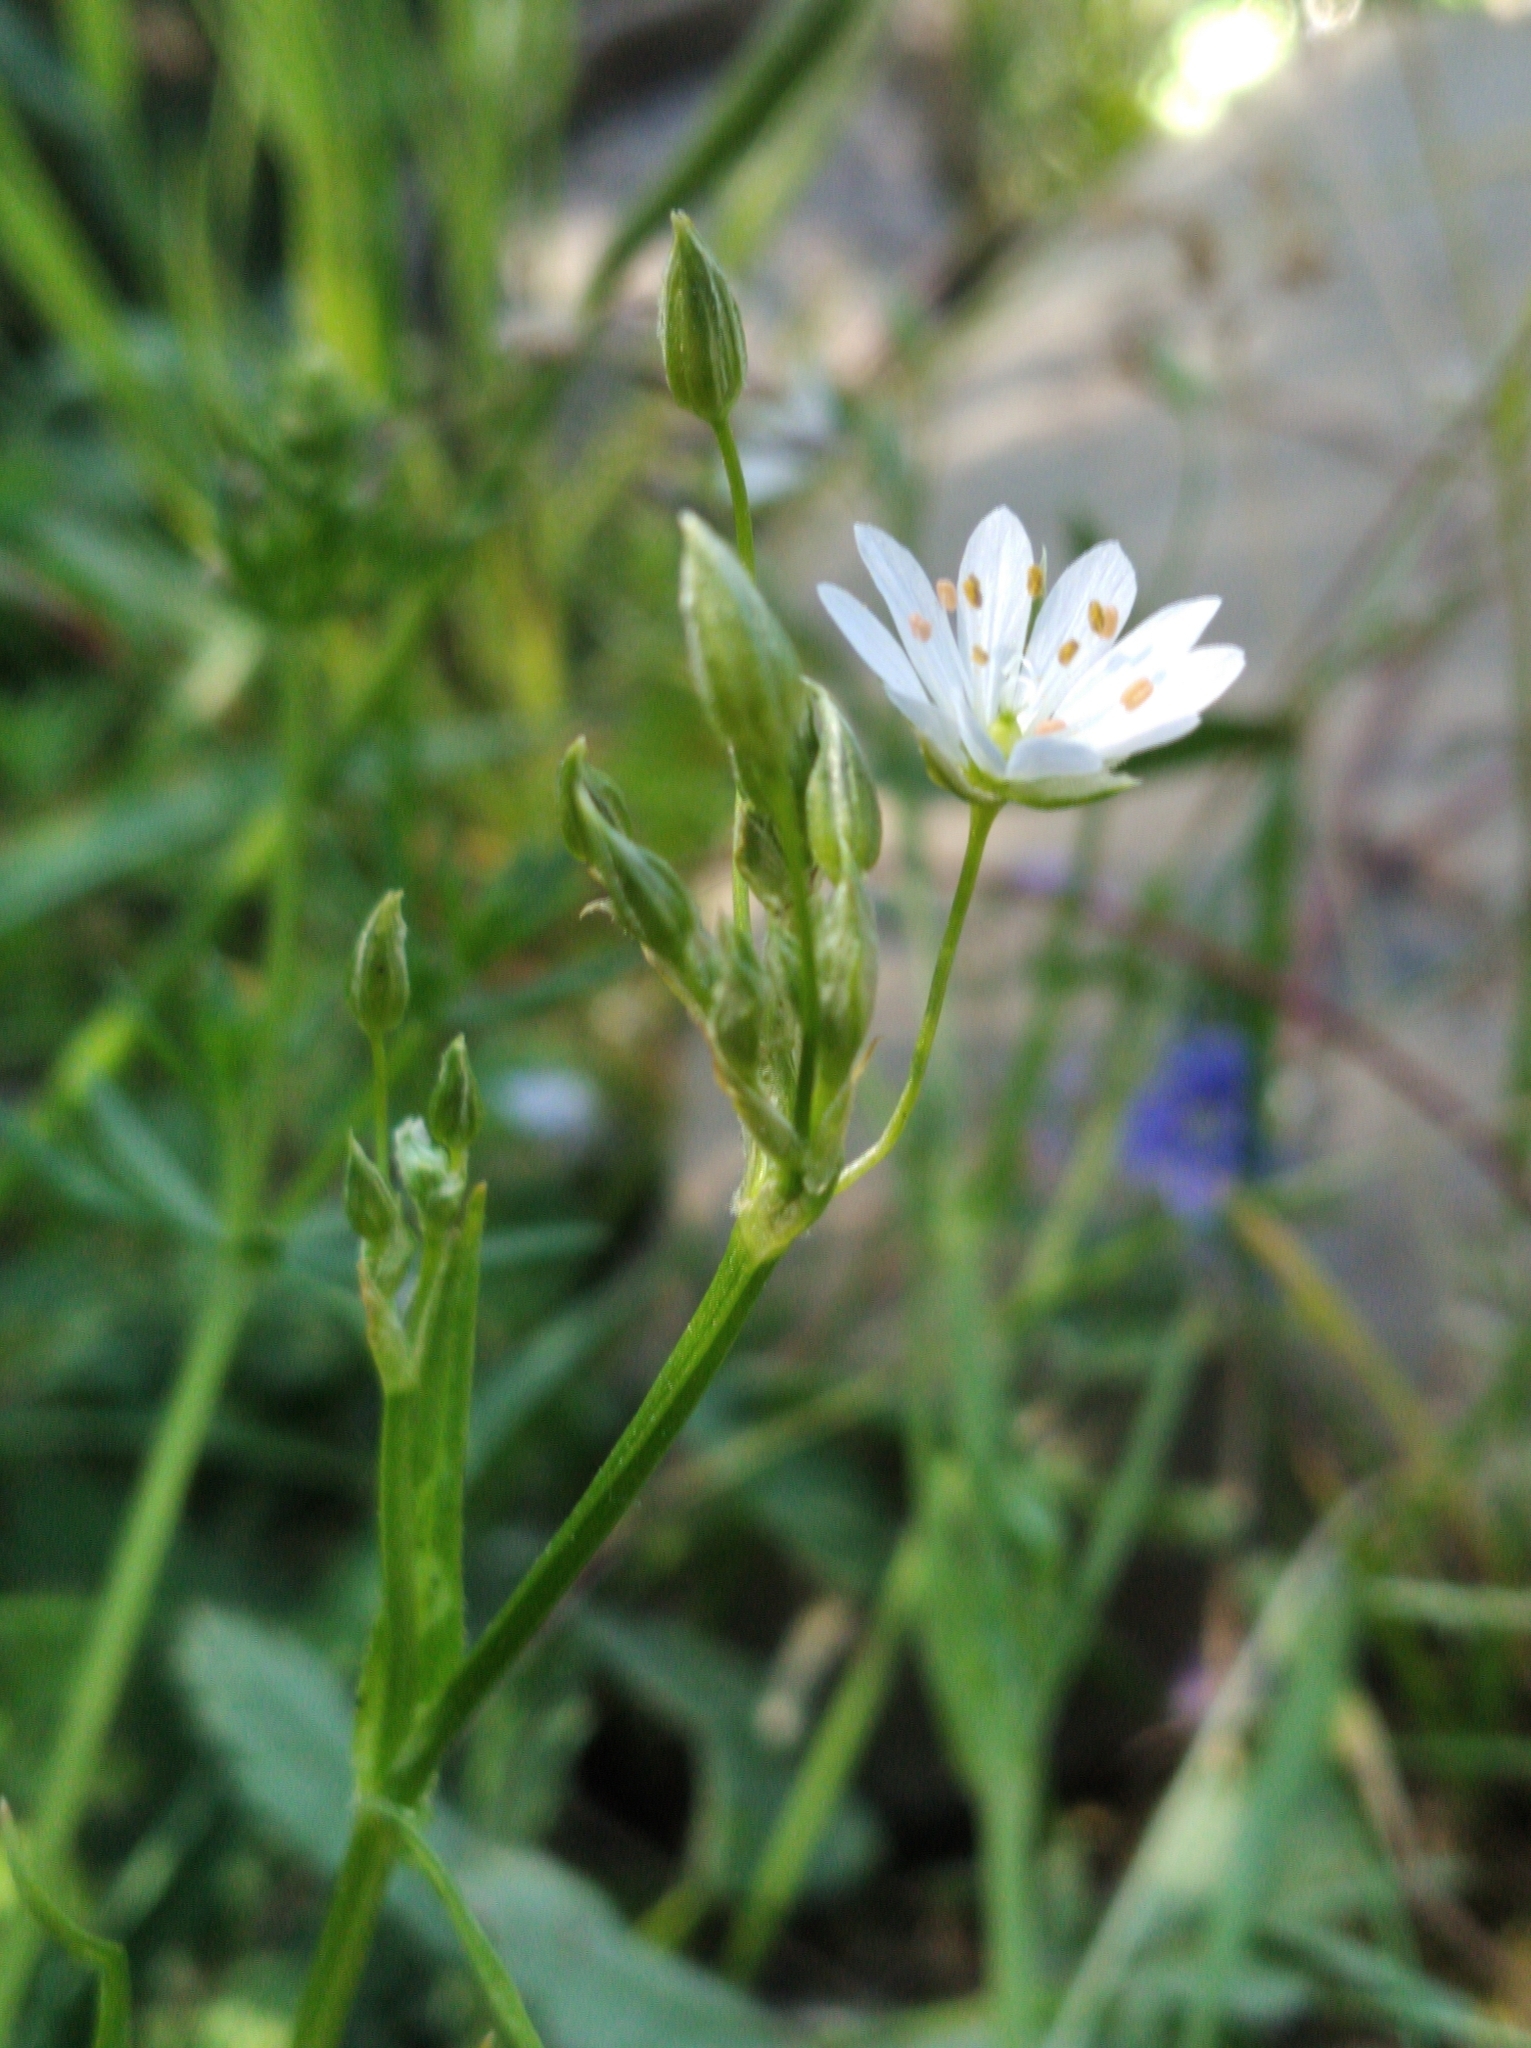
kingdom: Plantae
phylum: Tracheophyta
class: Magnoliopsida
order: Caryophyllales
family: Caryophyllaceae
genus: Stellaria
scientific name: Stellaria graminea
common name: Grass-like starwort
